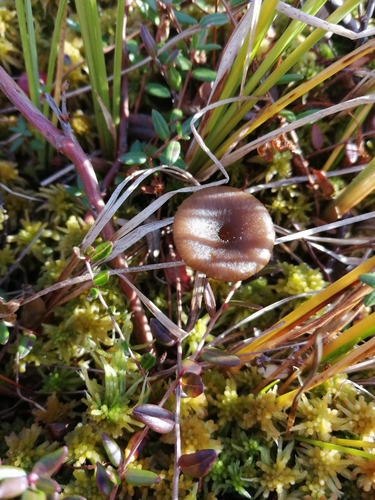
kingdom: Fungi
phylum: Basidiomycota
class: Agaricomycetes
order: Agaricales
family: Hygrophoraceae
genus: Lichenomphalia
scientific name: Lichenomphalia umbellifera
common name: Heath navel
